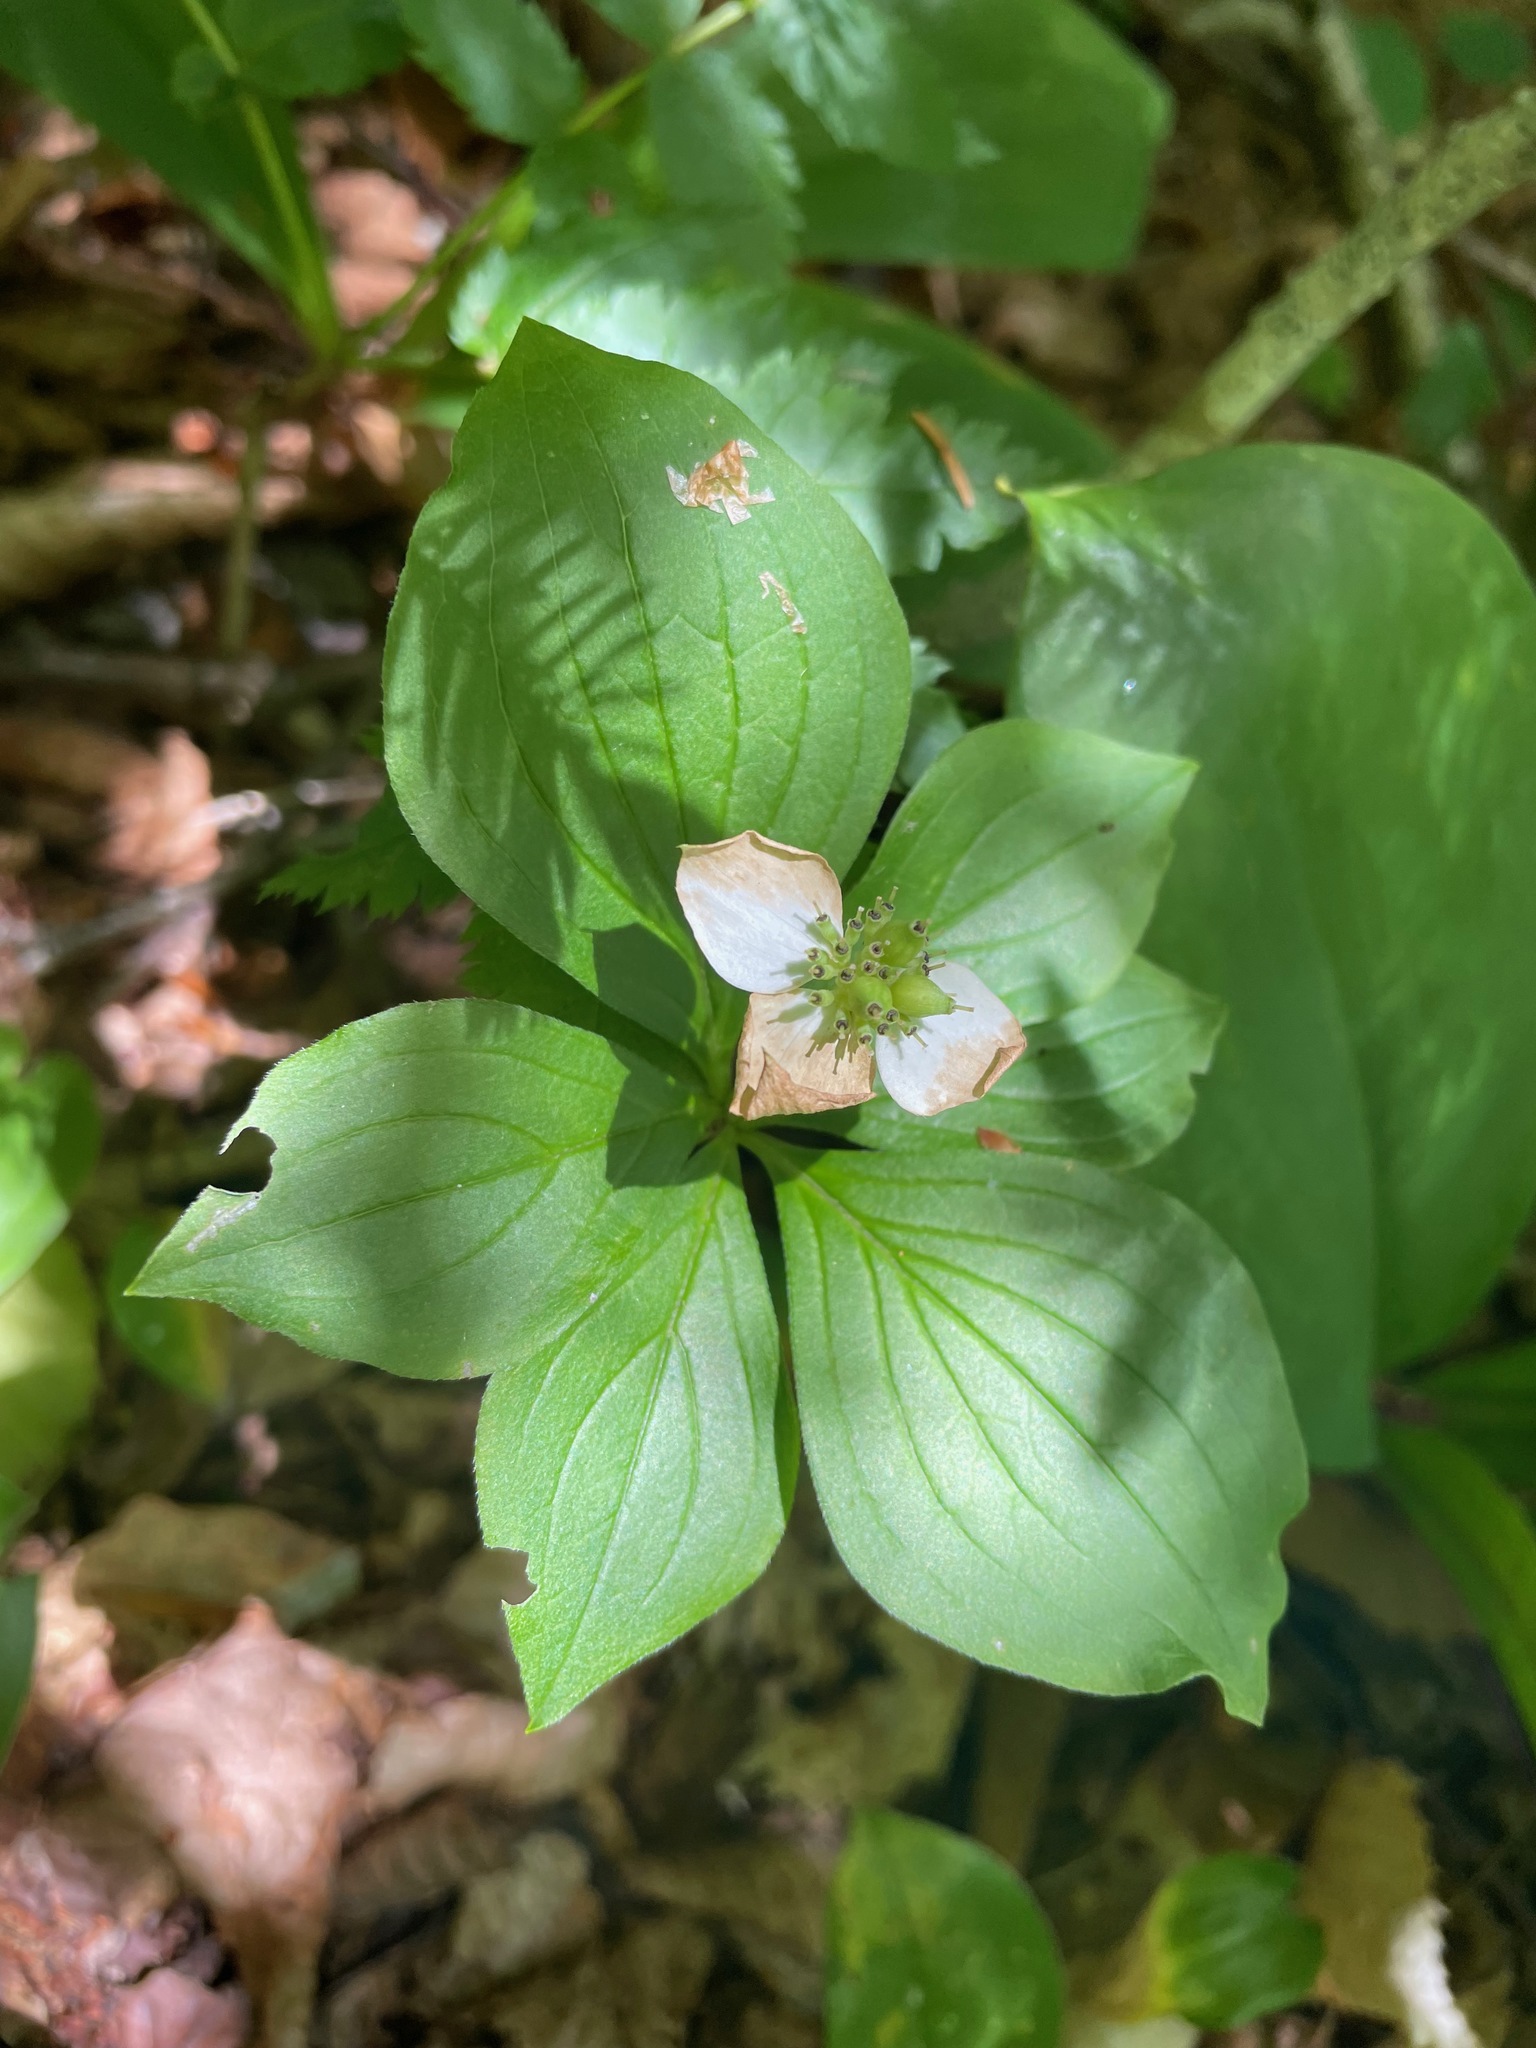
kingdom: Plantae
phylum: Tracheophyta
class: Magnoliopsida
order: Cornales
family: Cornaceae
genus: Cornus
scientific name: Cornus canadensis
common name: Creeping dogwood
